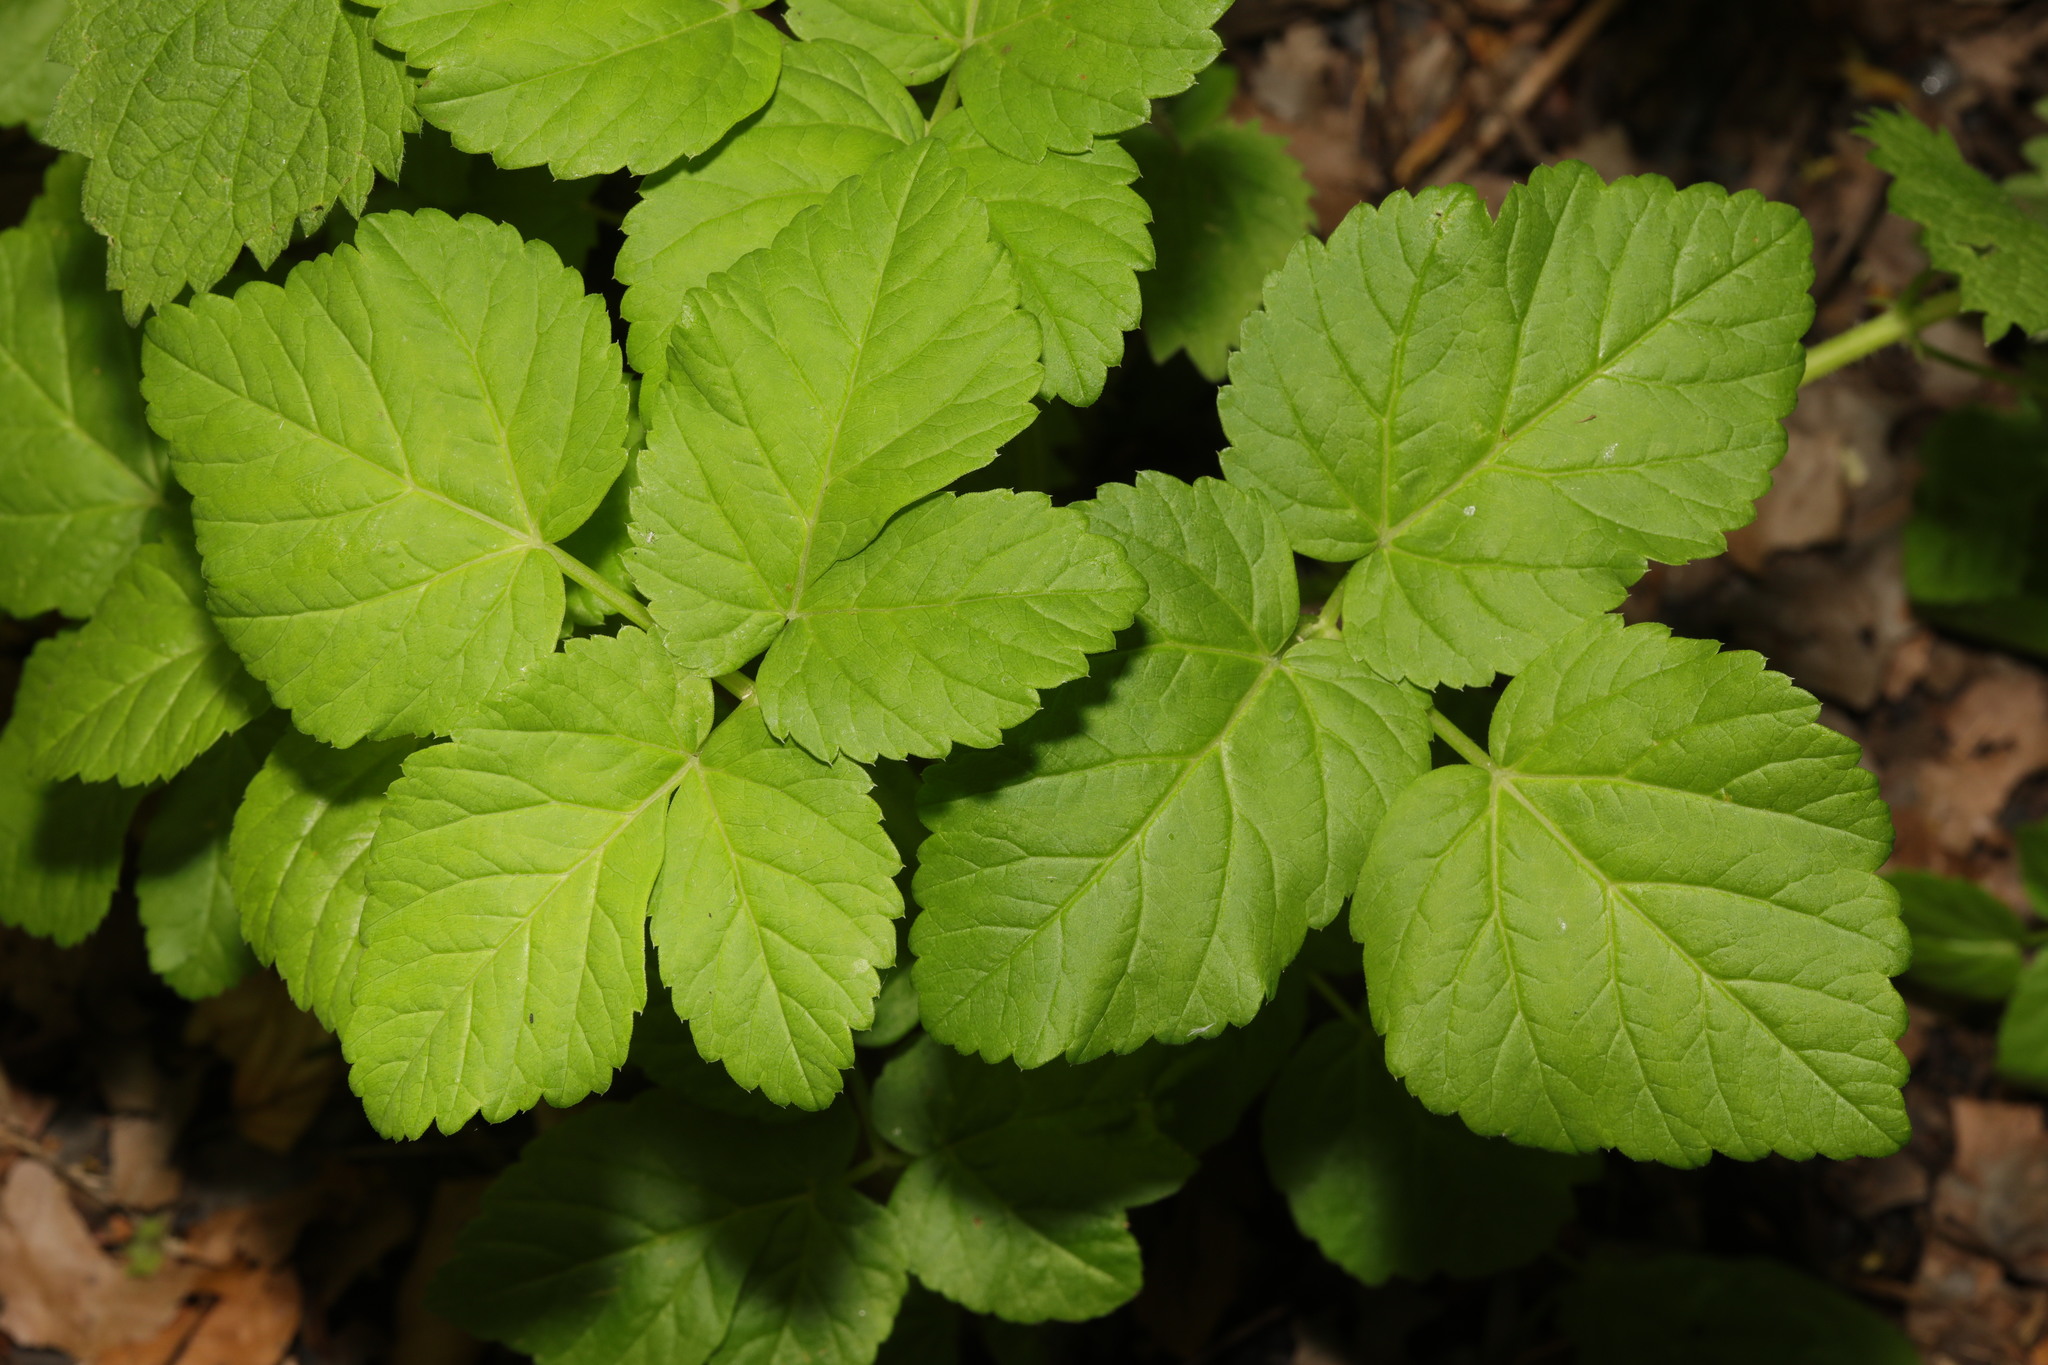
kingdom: Plantae
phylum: Tracheophyta
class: Magnoliopsida
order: Apiales
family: Apiaceae
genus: Aegopodium
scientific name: Aegopodium podagraria
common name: Ground-elder
